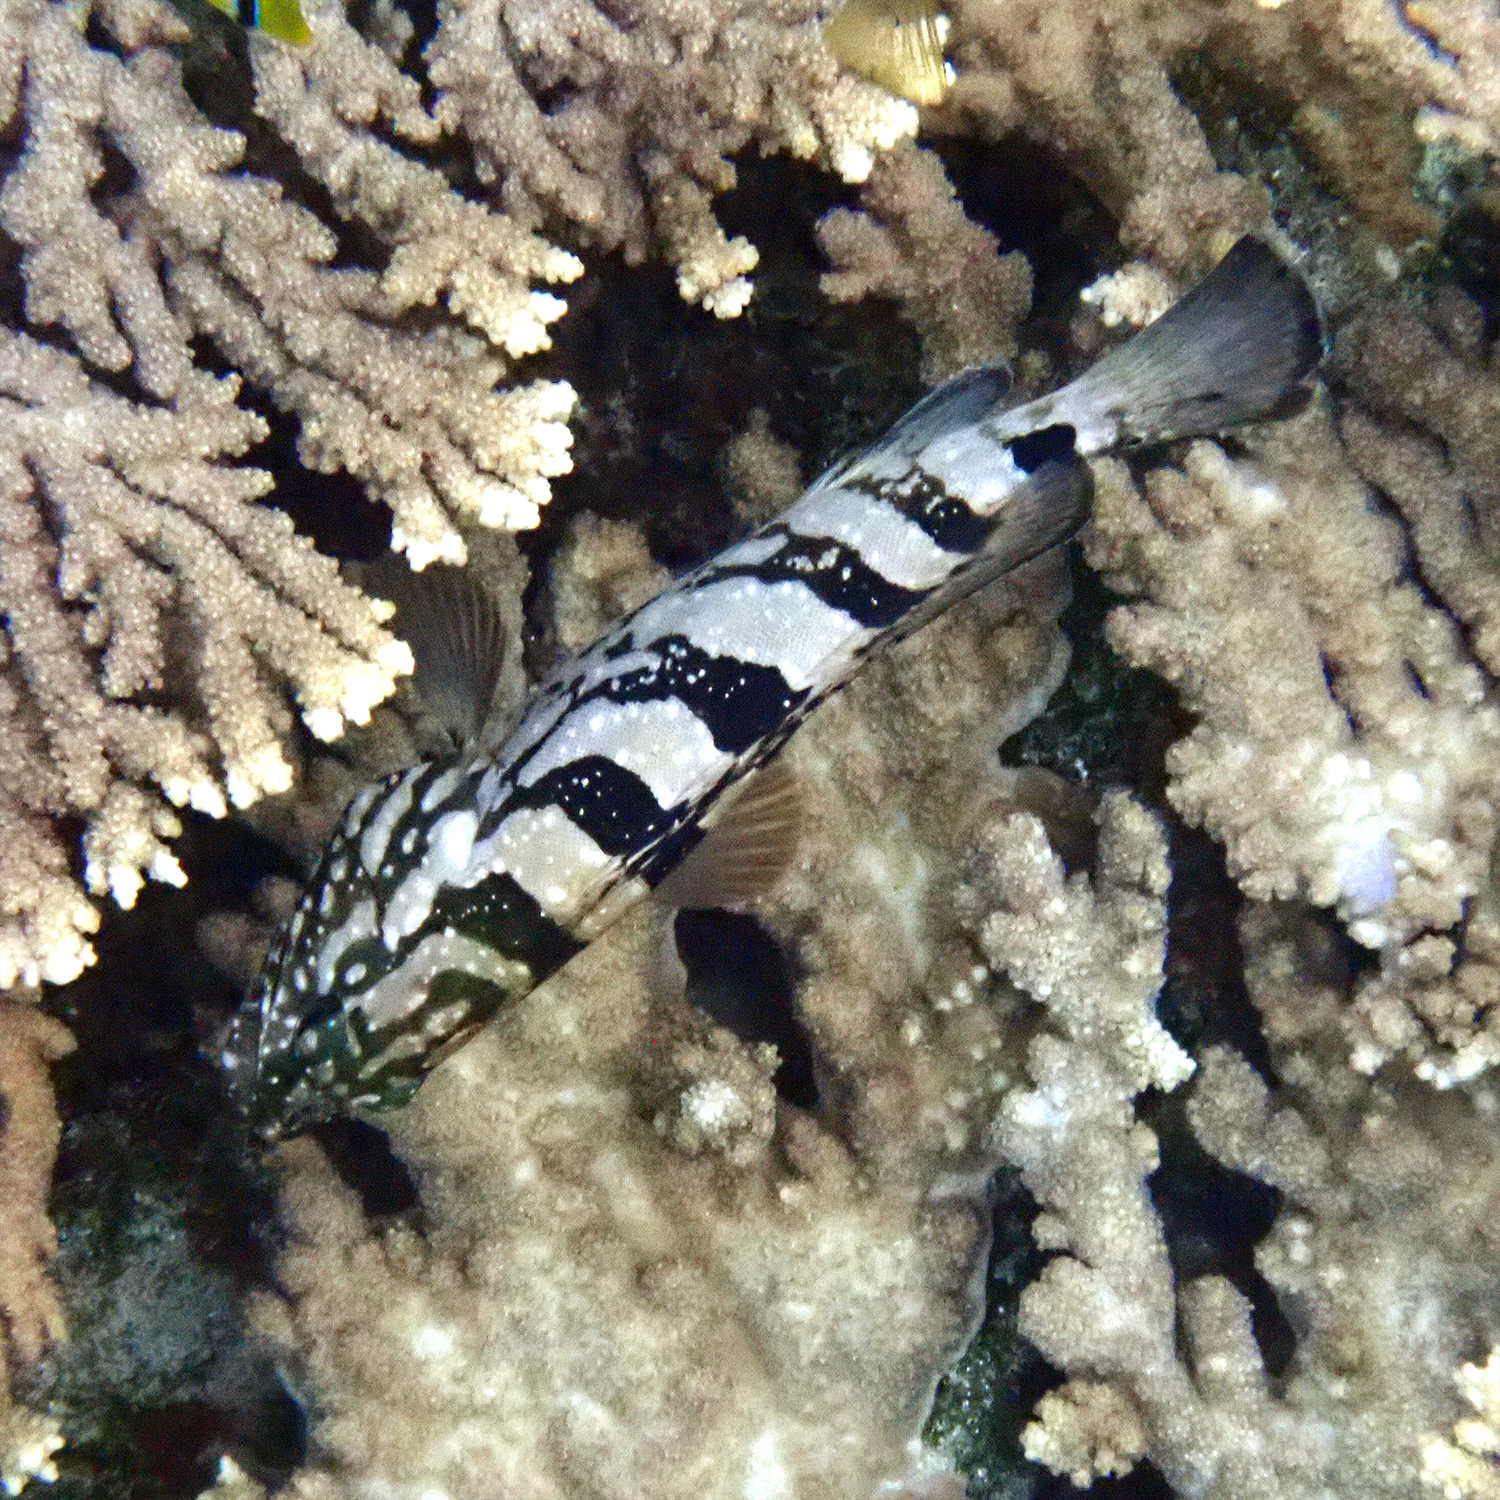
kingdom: Animalia
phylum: Chordata
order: Perciformes
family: Serranidae
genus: Epinephelus
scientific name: Epinephelus daemelii
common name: Saddletail grouper
